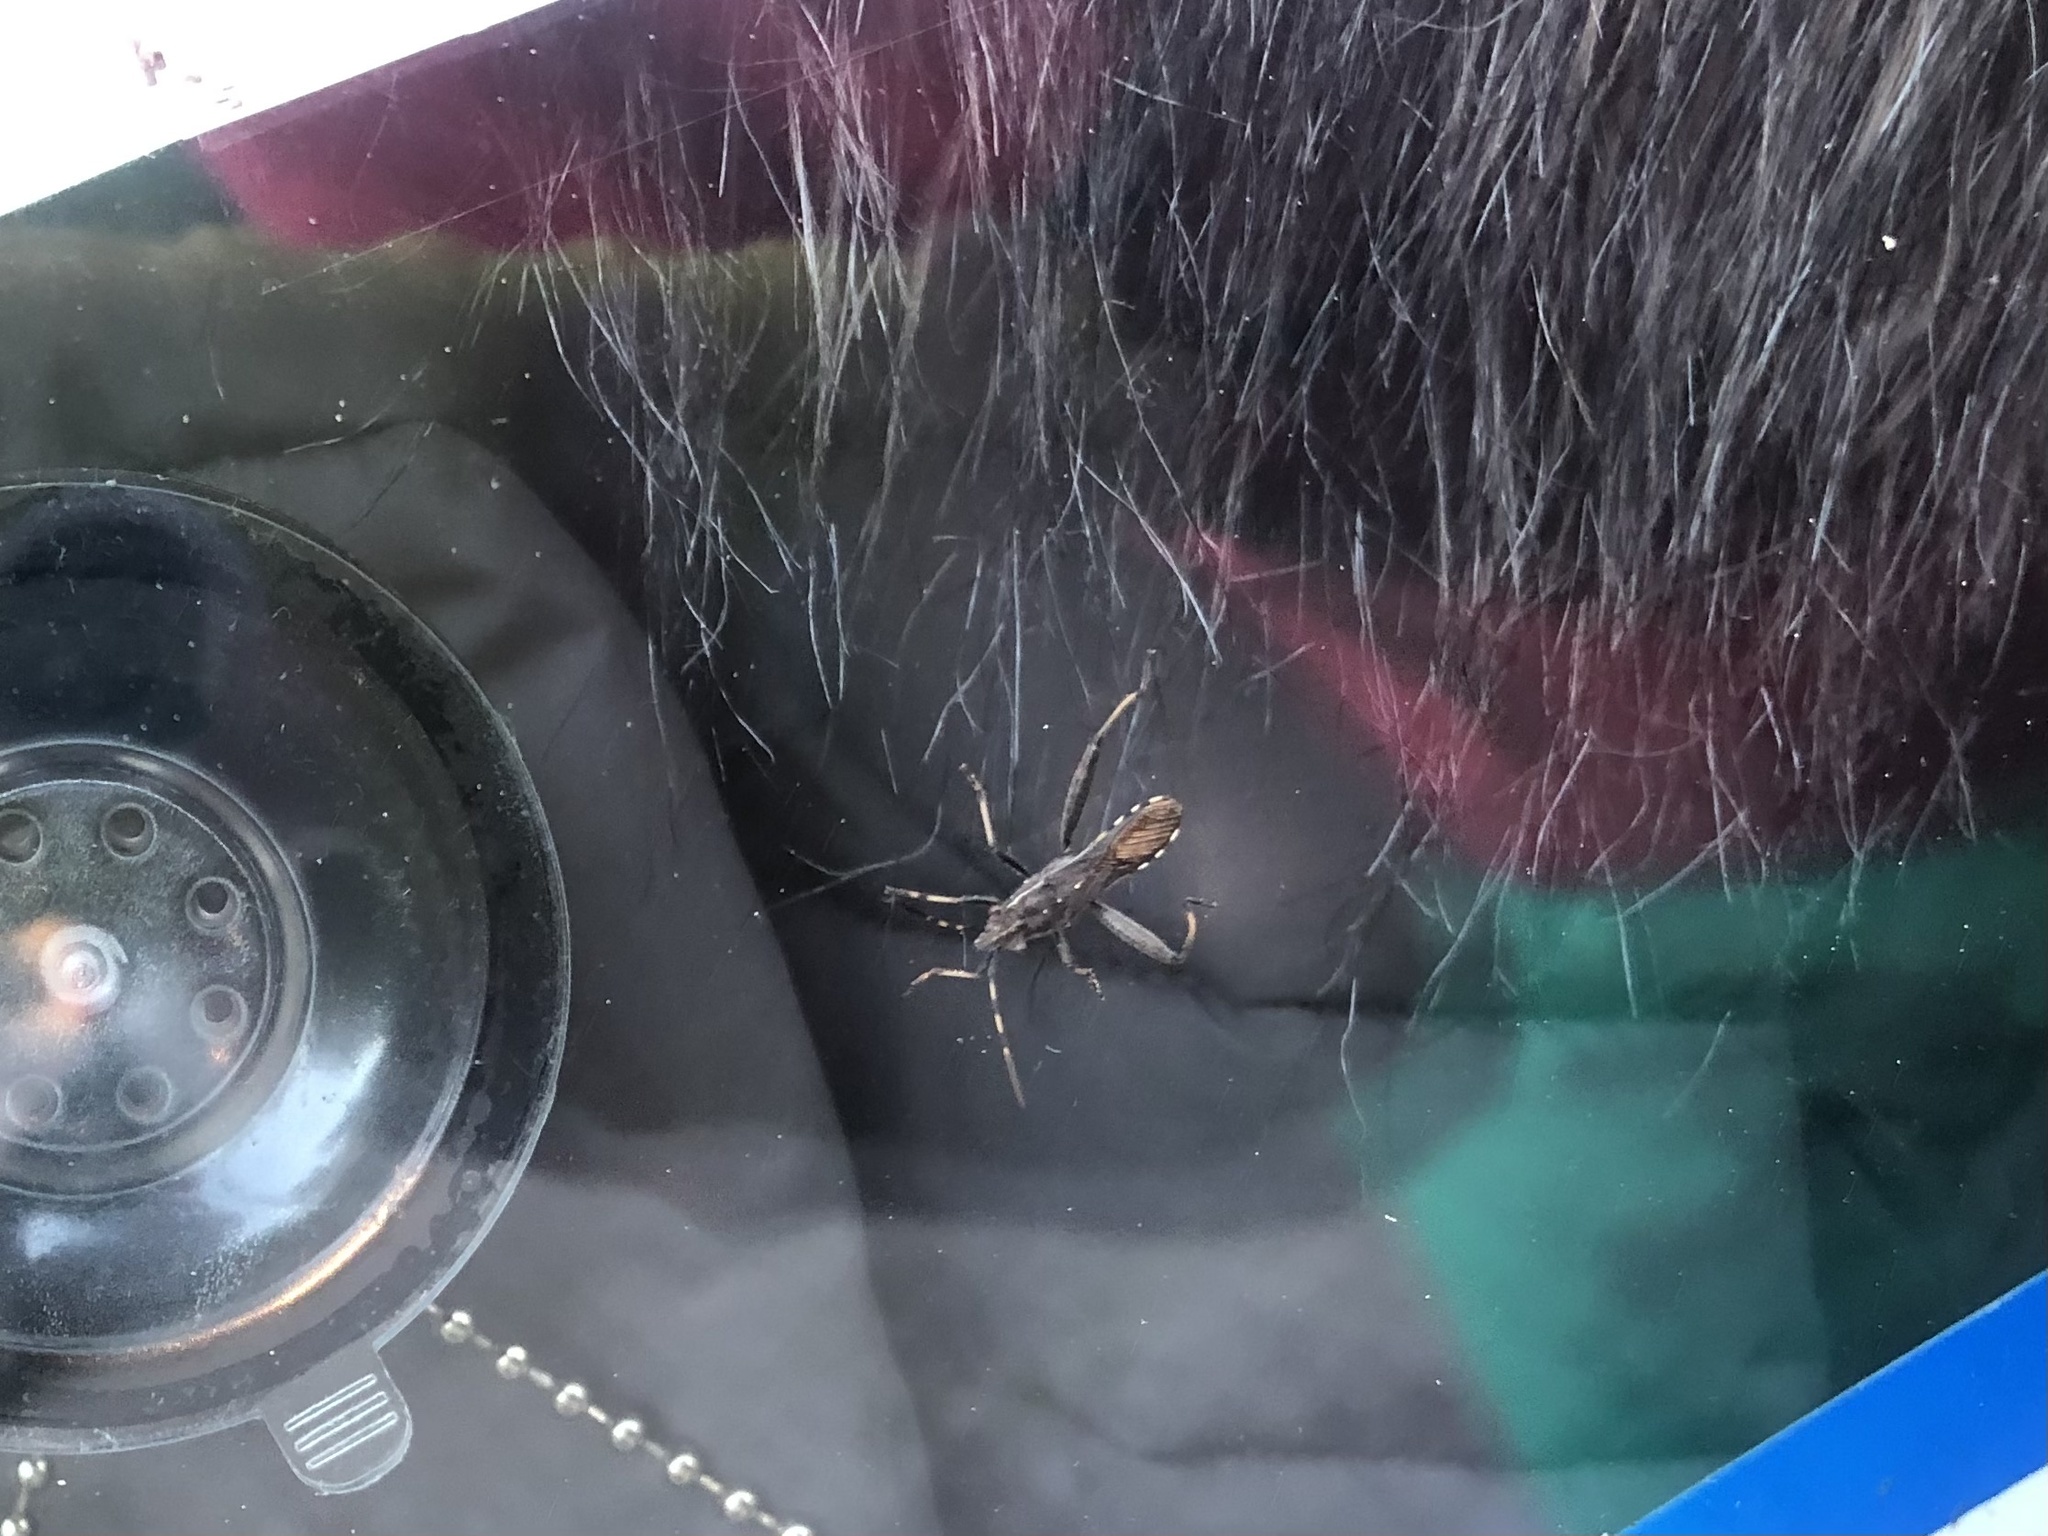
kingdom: Animalia
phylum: Arthropoda
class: Insecta
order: Hemiptera
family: Alydidae
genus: Camptopus
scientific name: Camptopus lateralis
